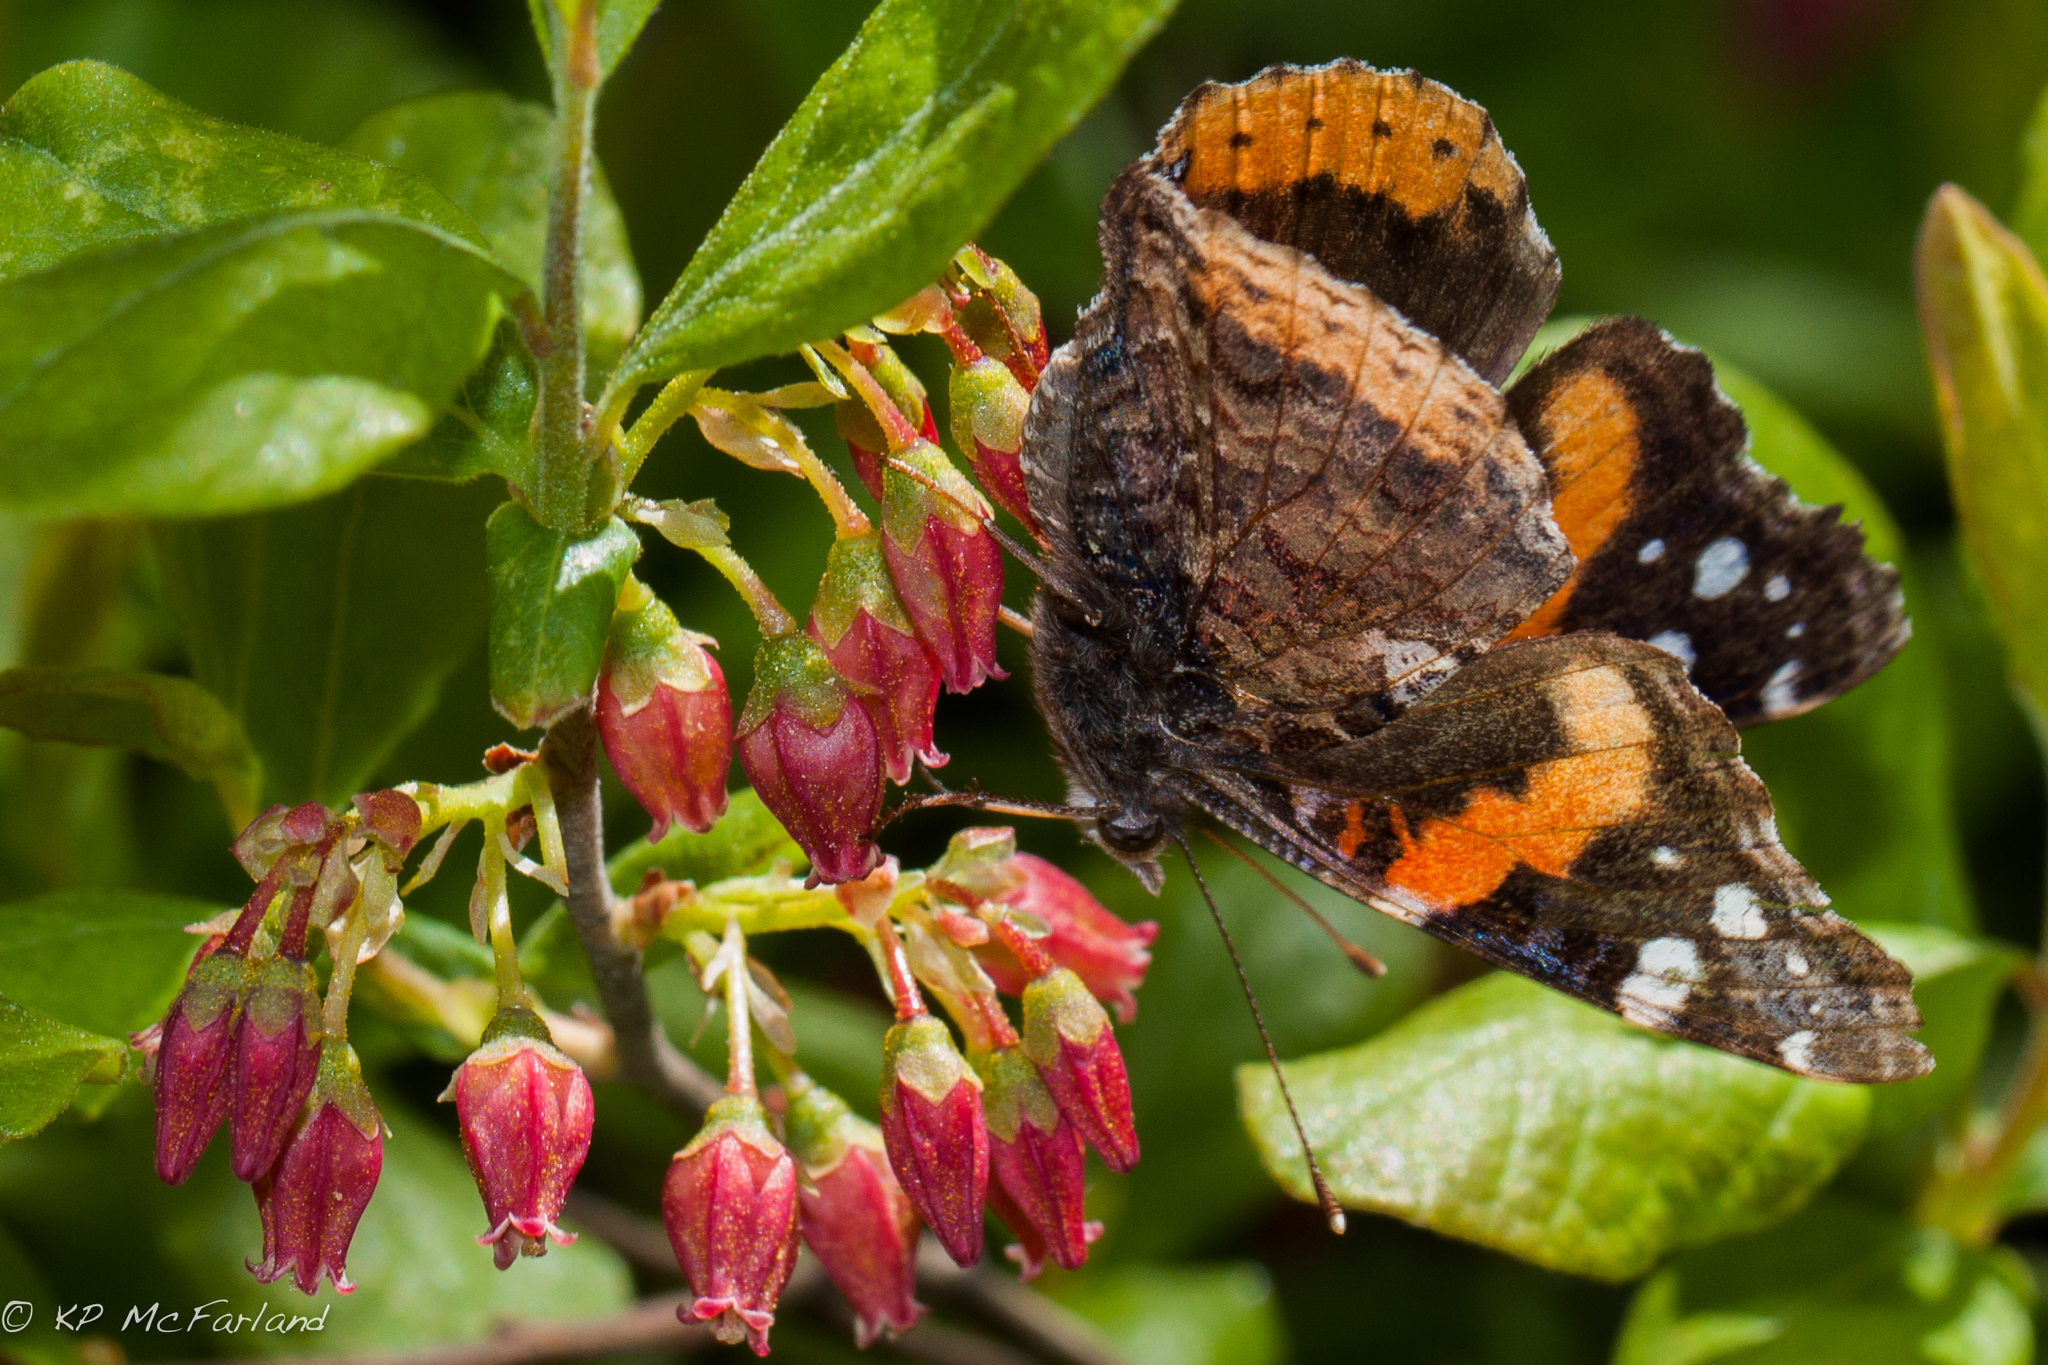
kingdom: Animalia
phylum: Arthropoda
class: Insecta
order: Lepidoptera
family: Nymphalidae
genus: Vanessa
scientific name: Vanessa atalanta
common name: Red admiral
